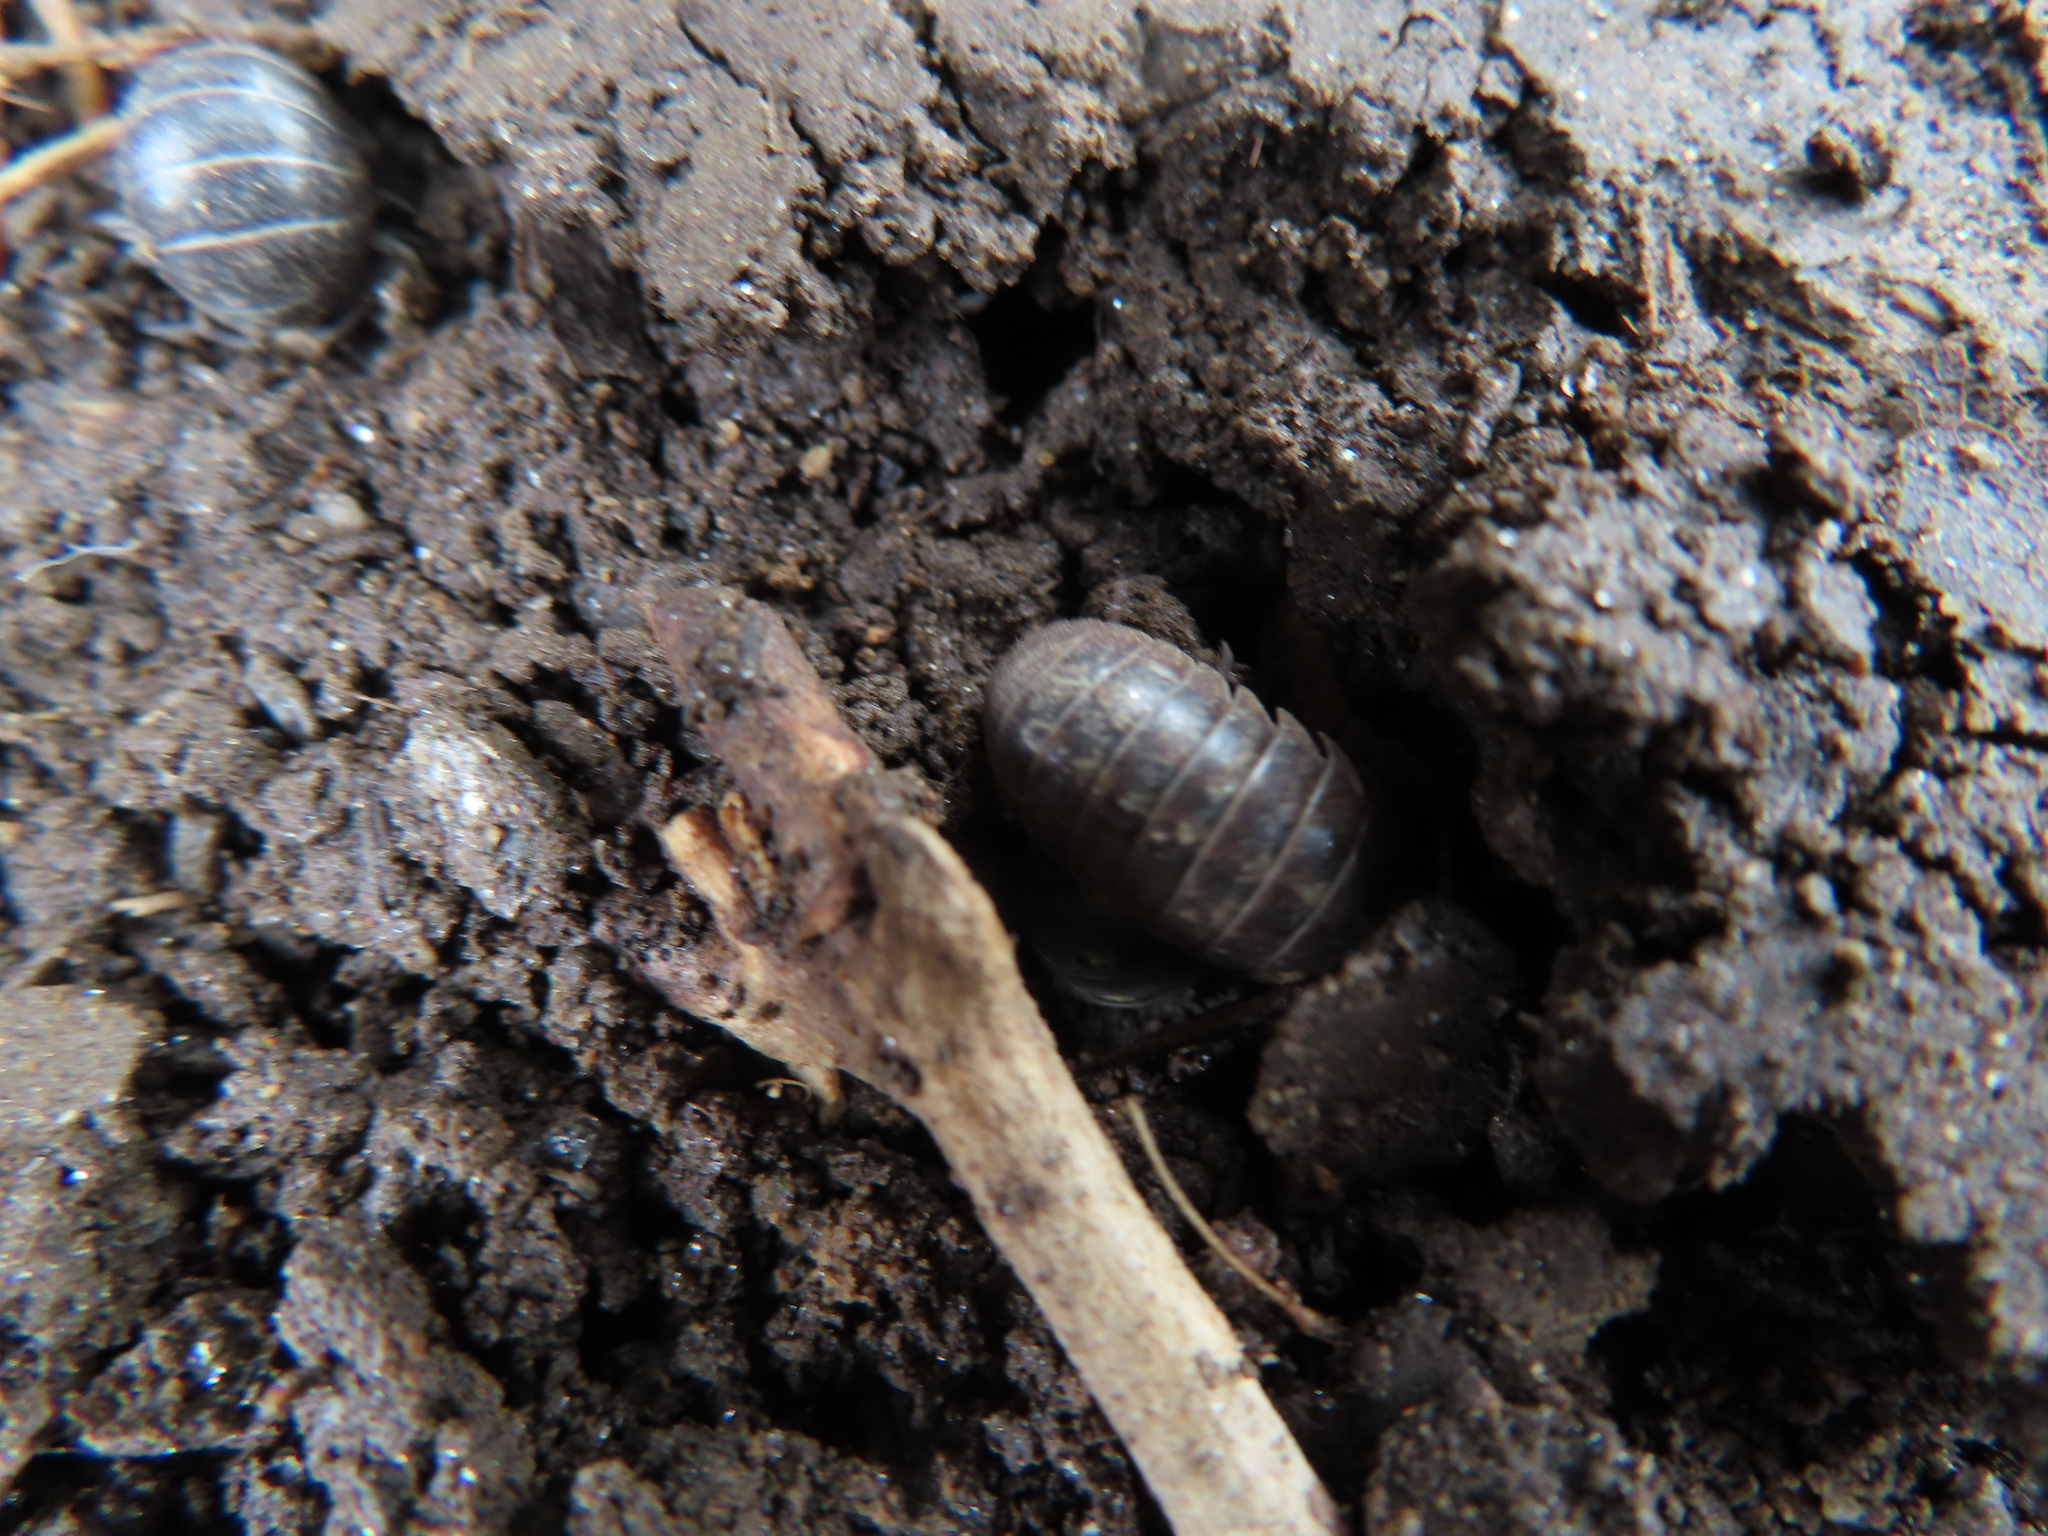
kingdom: Animalia
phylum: Arthropoda
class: Malacostraca
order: Isopoda
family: Armadillidiidae
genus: Armadillidium
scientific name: Armadillidium vulgare
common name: Common pill woodlouse
